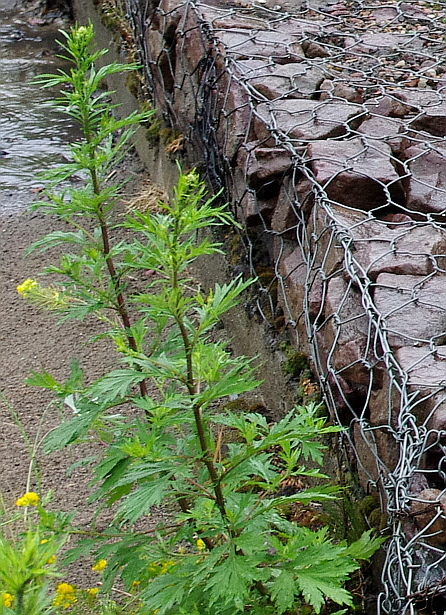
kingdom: Plantae
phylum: Tracheophyta
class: Magnoliopsida
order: Asterales
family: Asteraceae
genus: Artemisia
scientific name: Artemisia vulgaris
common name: Mugwort
